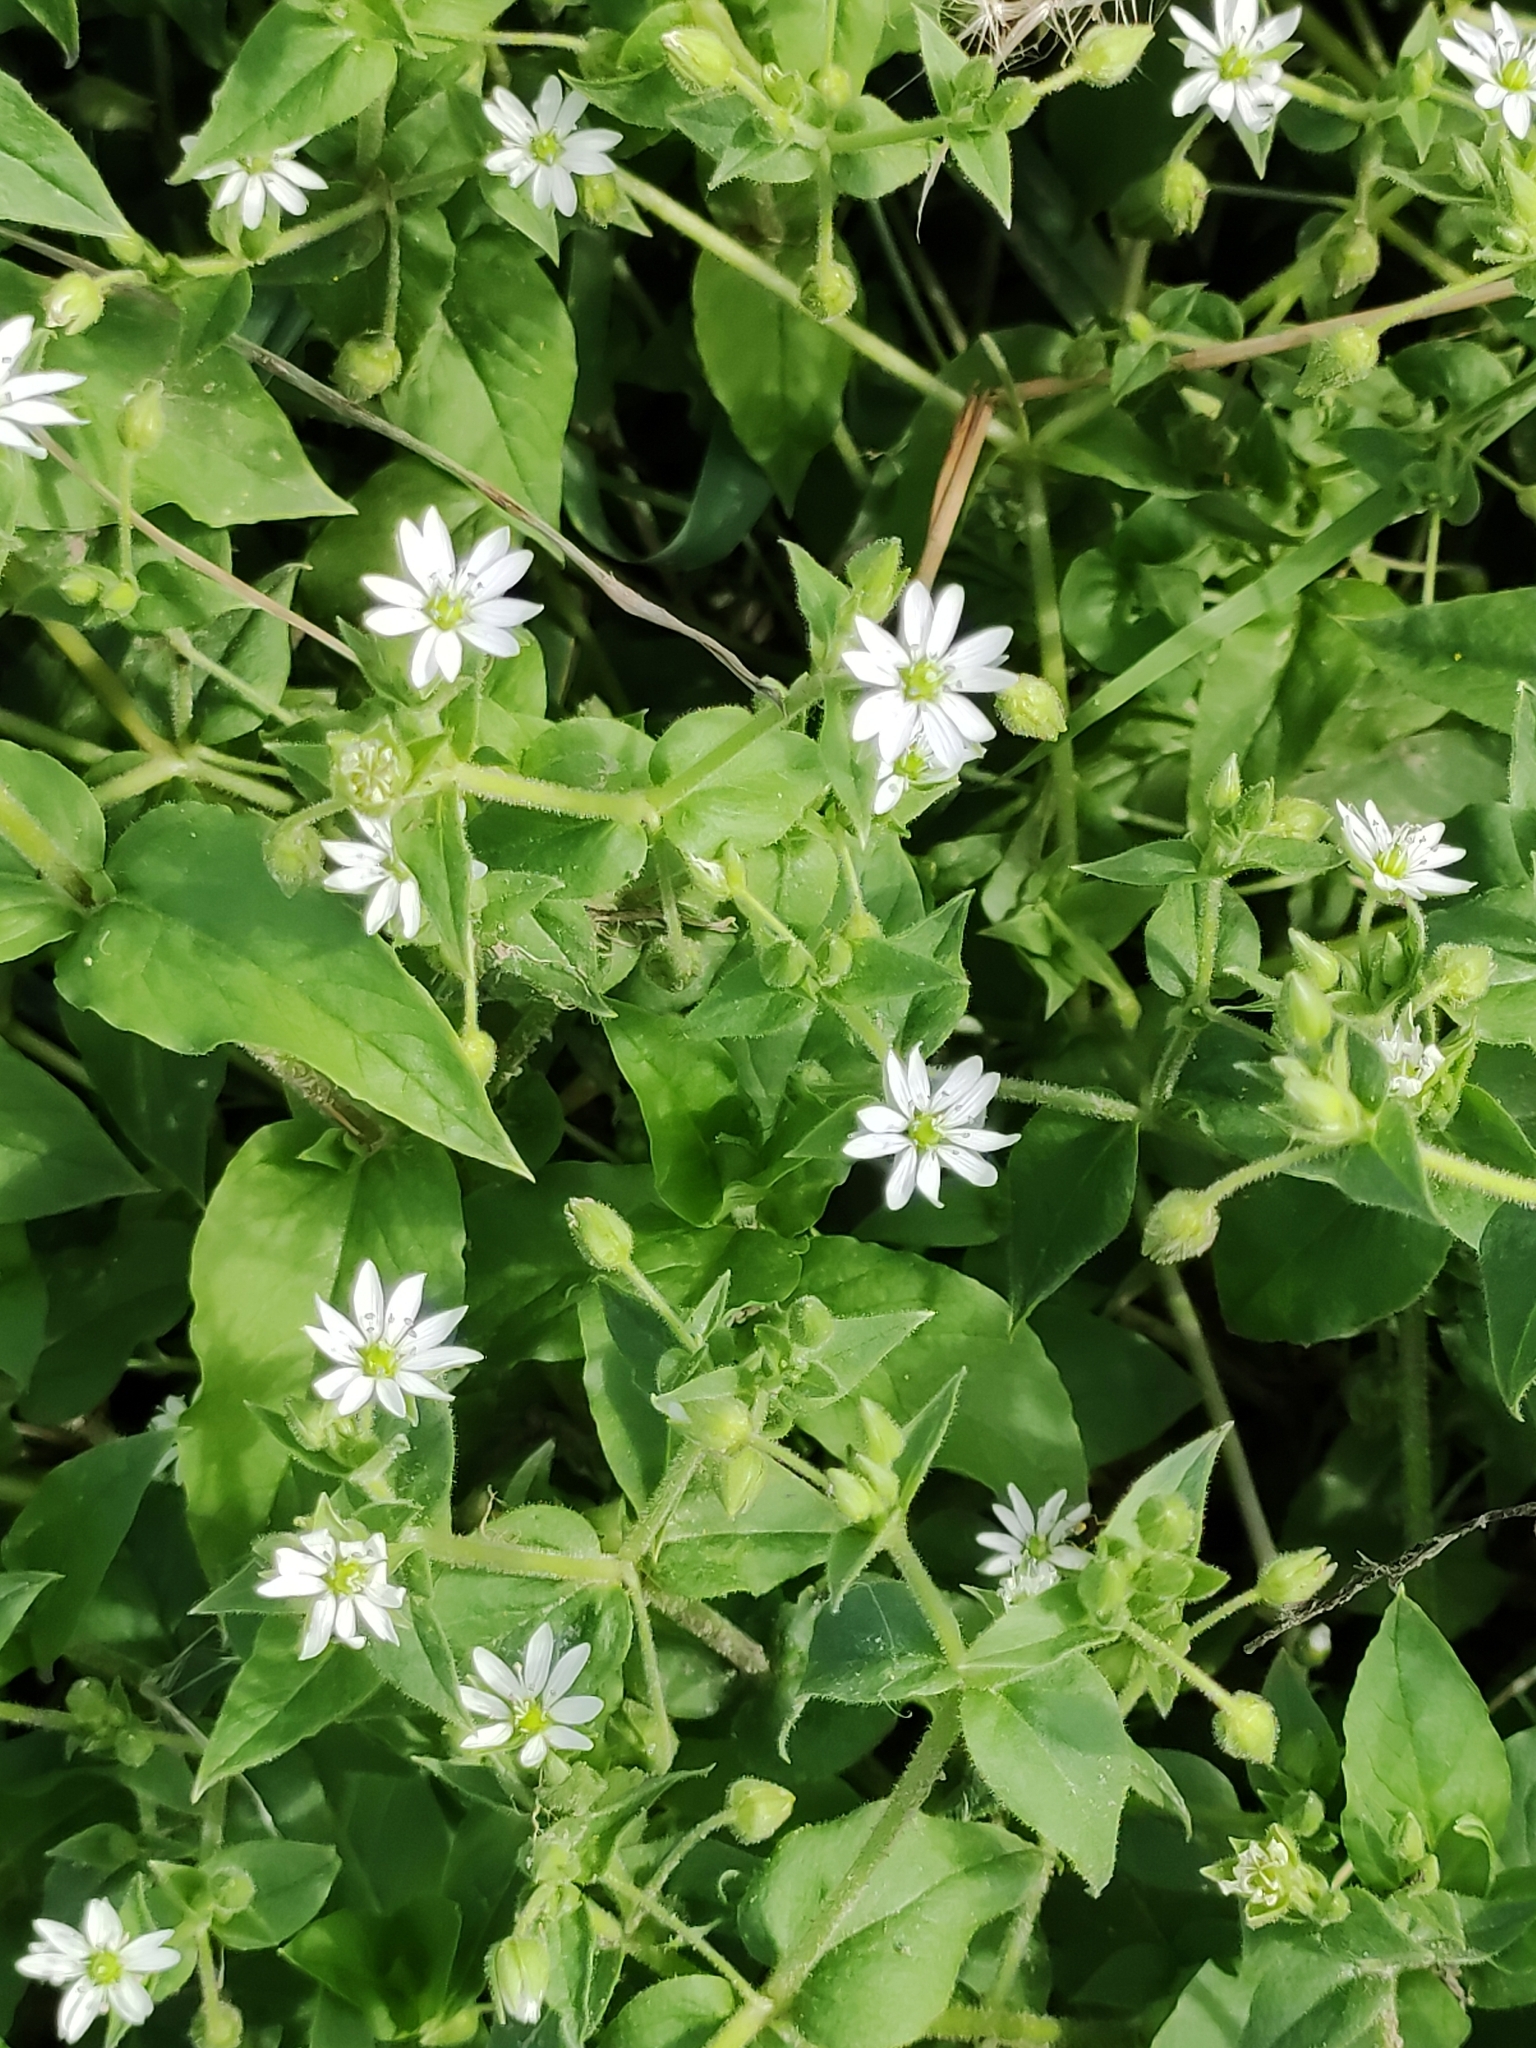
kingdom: Plantae
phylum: Tracheophyta
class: Magnoliopsida
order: Caryophyllales
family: Caryophyllaceae
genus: Stellaria
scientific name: Stellaria aquatica
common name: Water chickweed
